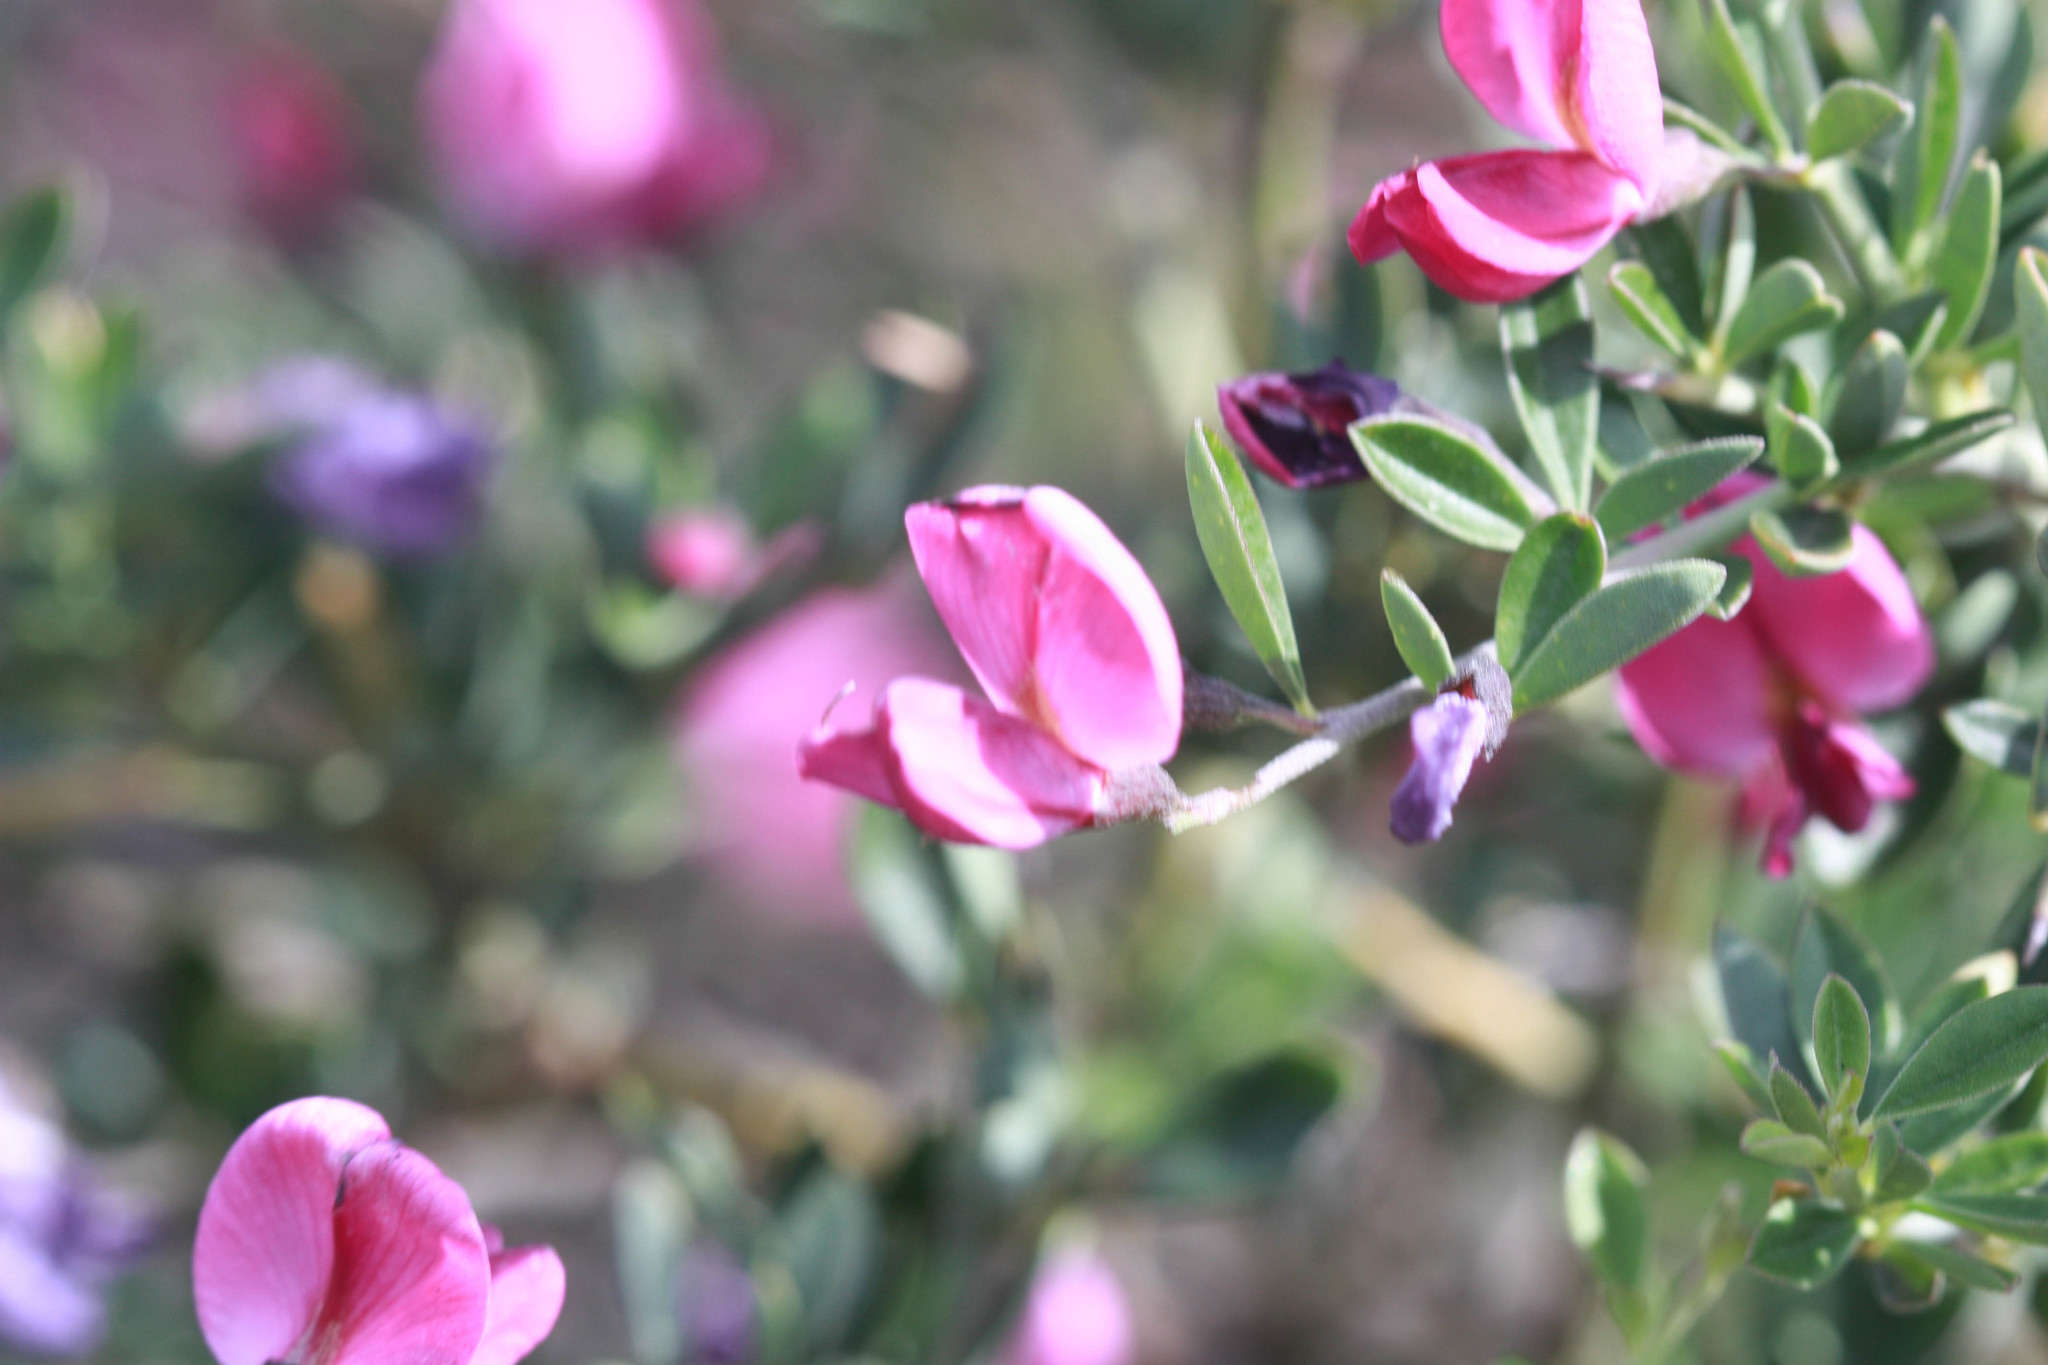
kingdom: Plantae
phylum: Tracheophyta
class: Magnoliopsida
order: Fabales
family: Fabaceae
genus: Pickeringia
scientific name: Pickeringia montana
